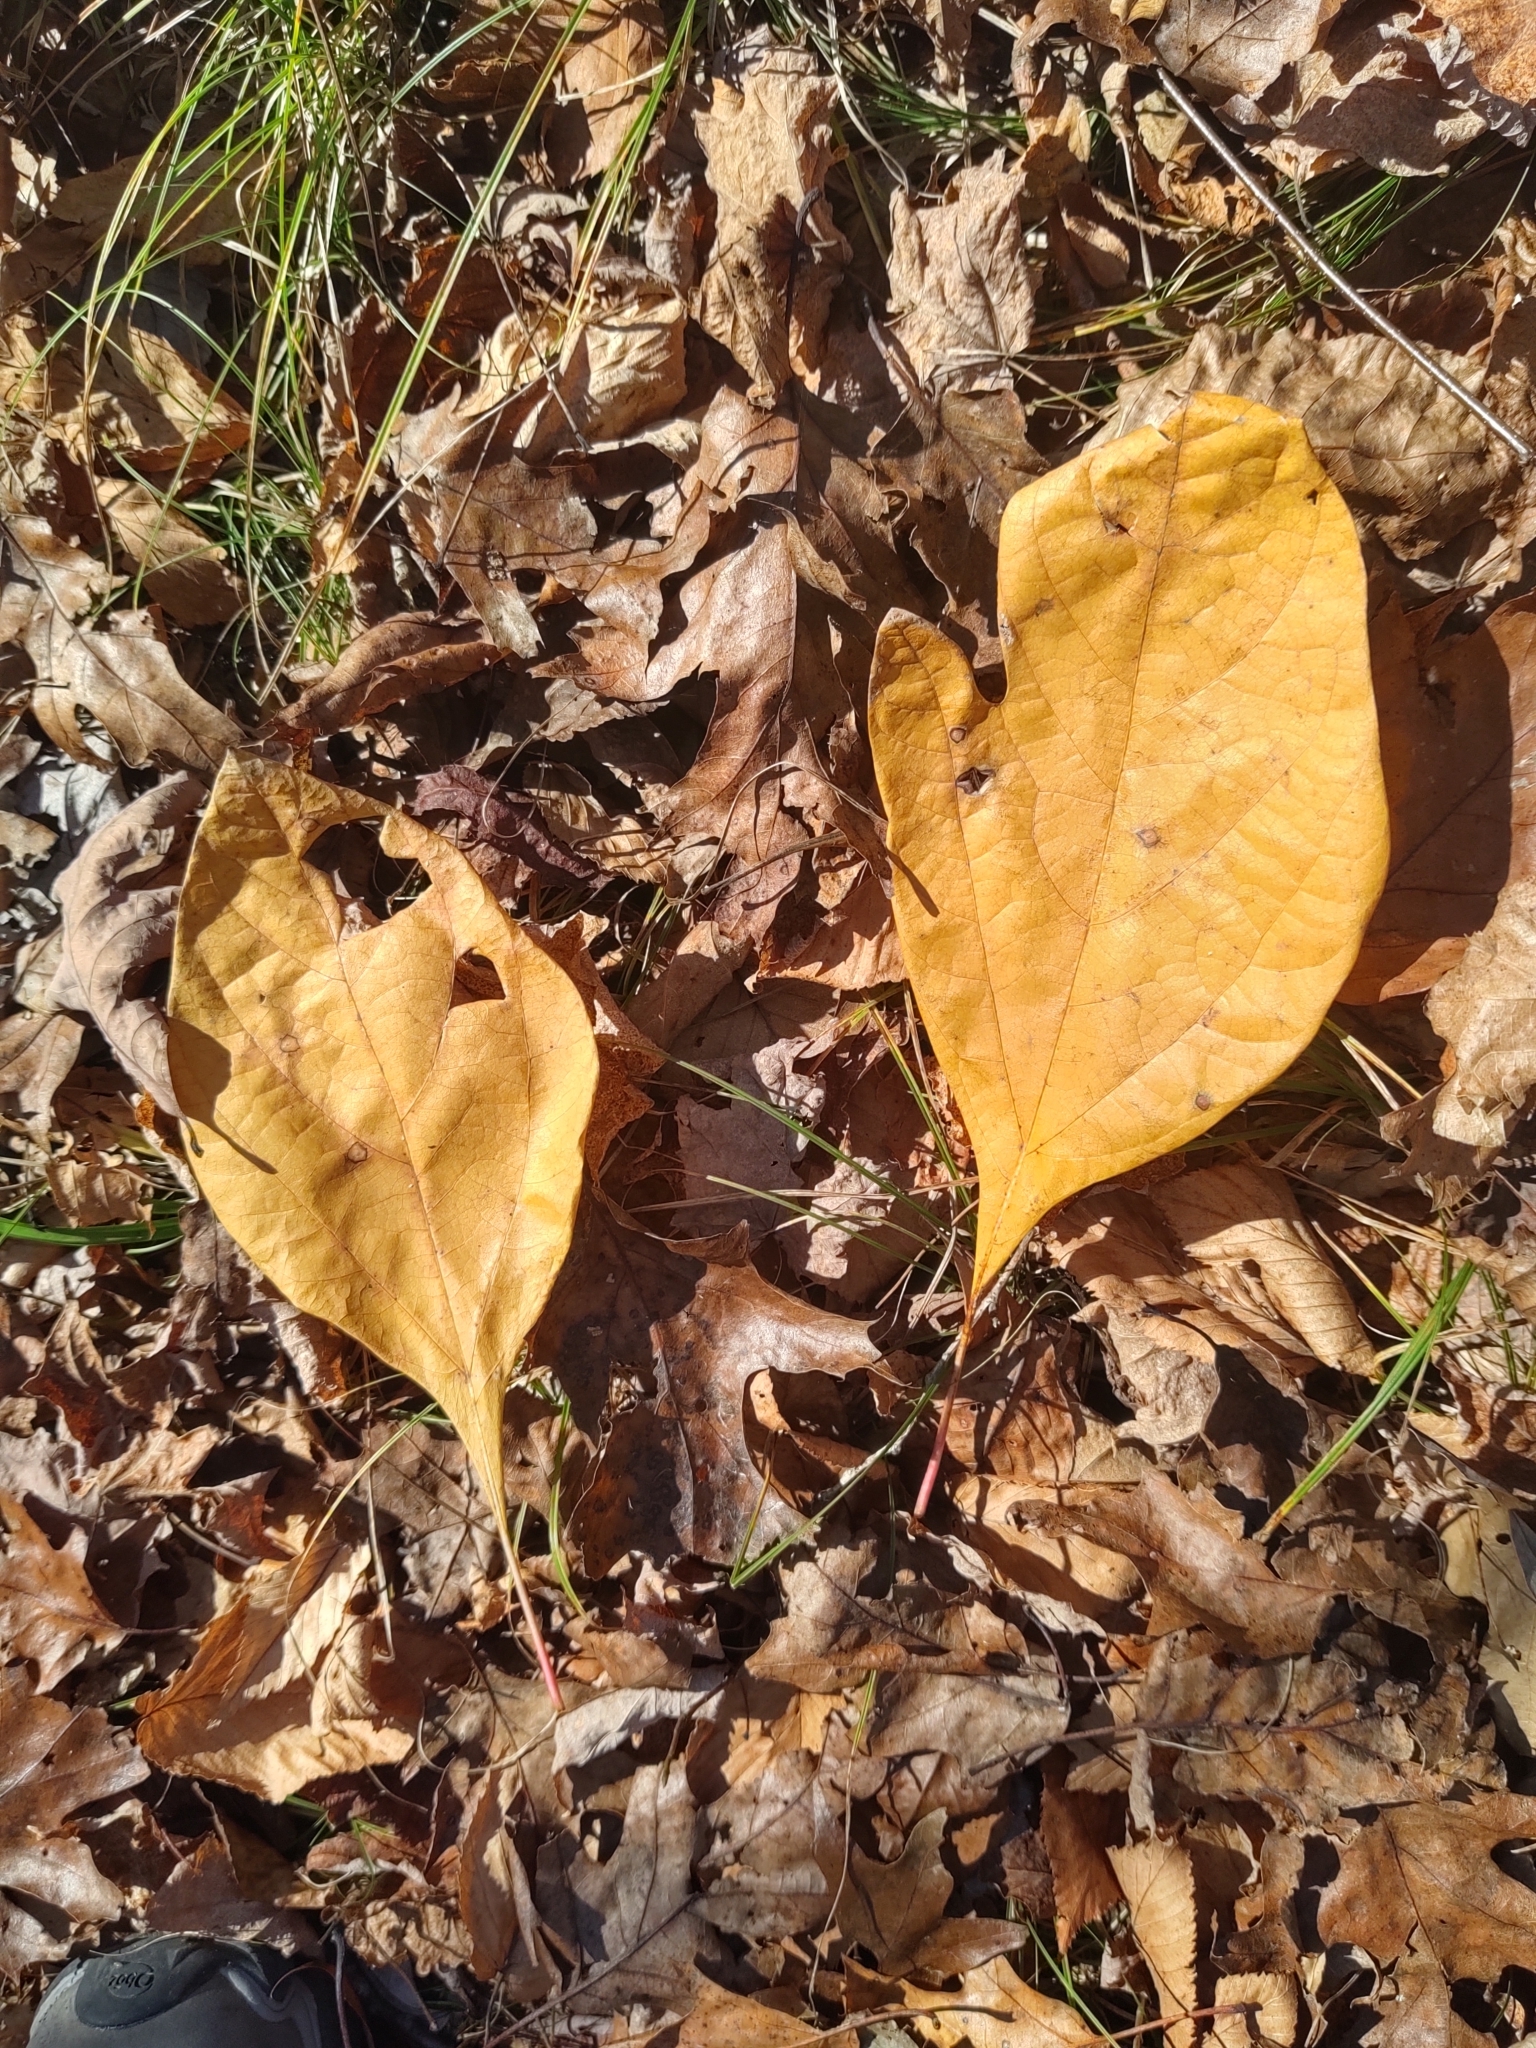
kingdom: Plantae
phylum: Tracheophyta
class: Magnoliopsida
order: Laurales
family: Lauraceae
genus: Sassafras
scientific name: Sassafras albidum
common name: Sassafras
